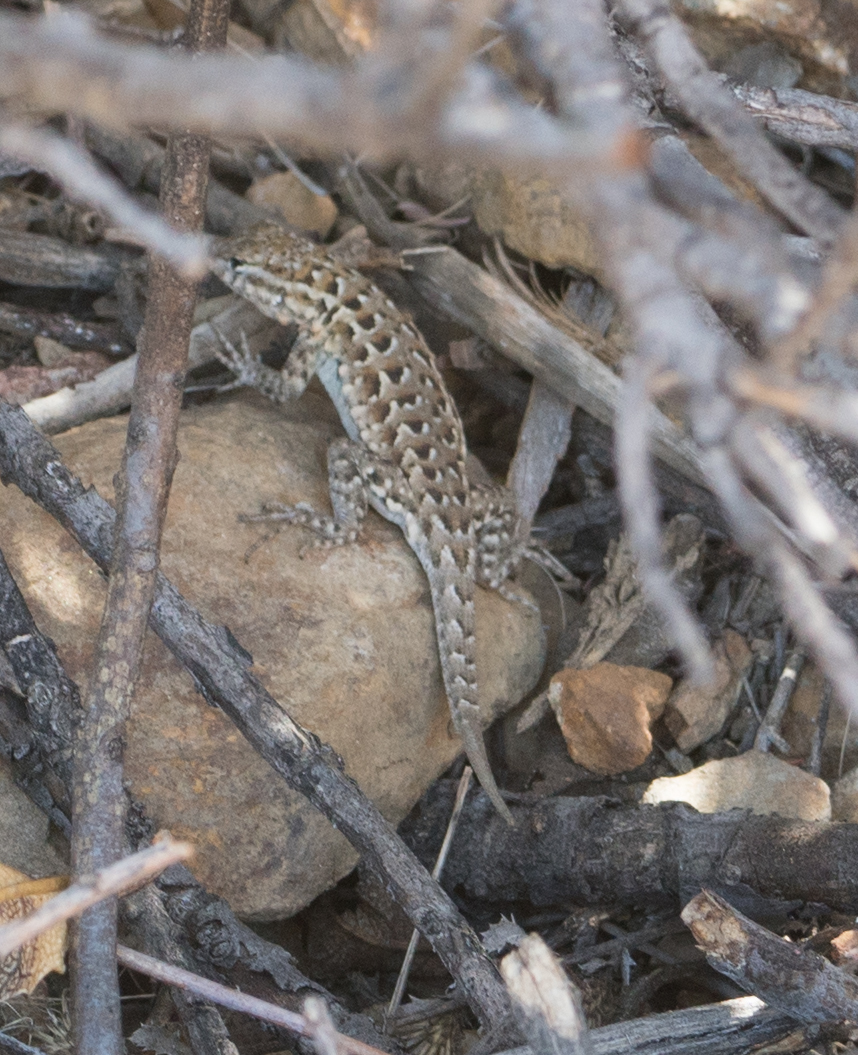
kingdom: Animalia
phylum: Chordata
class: Squamata
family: Phrynosomatidae
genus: Uta
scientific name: Uta stansburiana
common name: Side-blotched lizard
